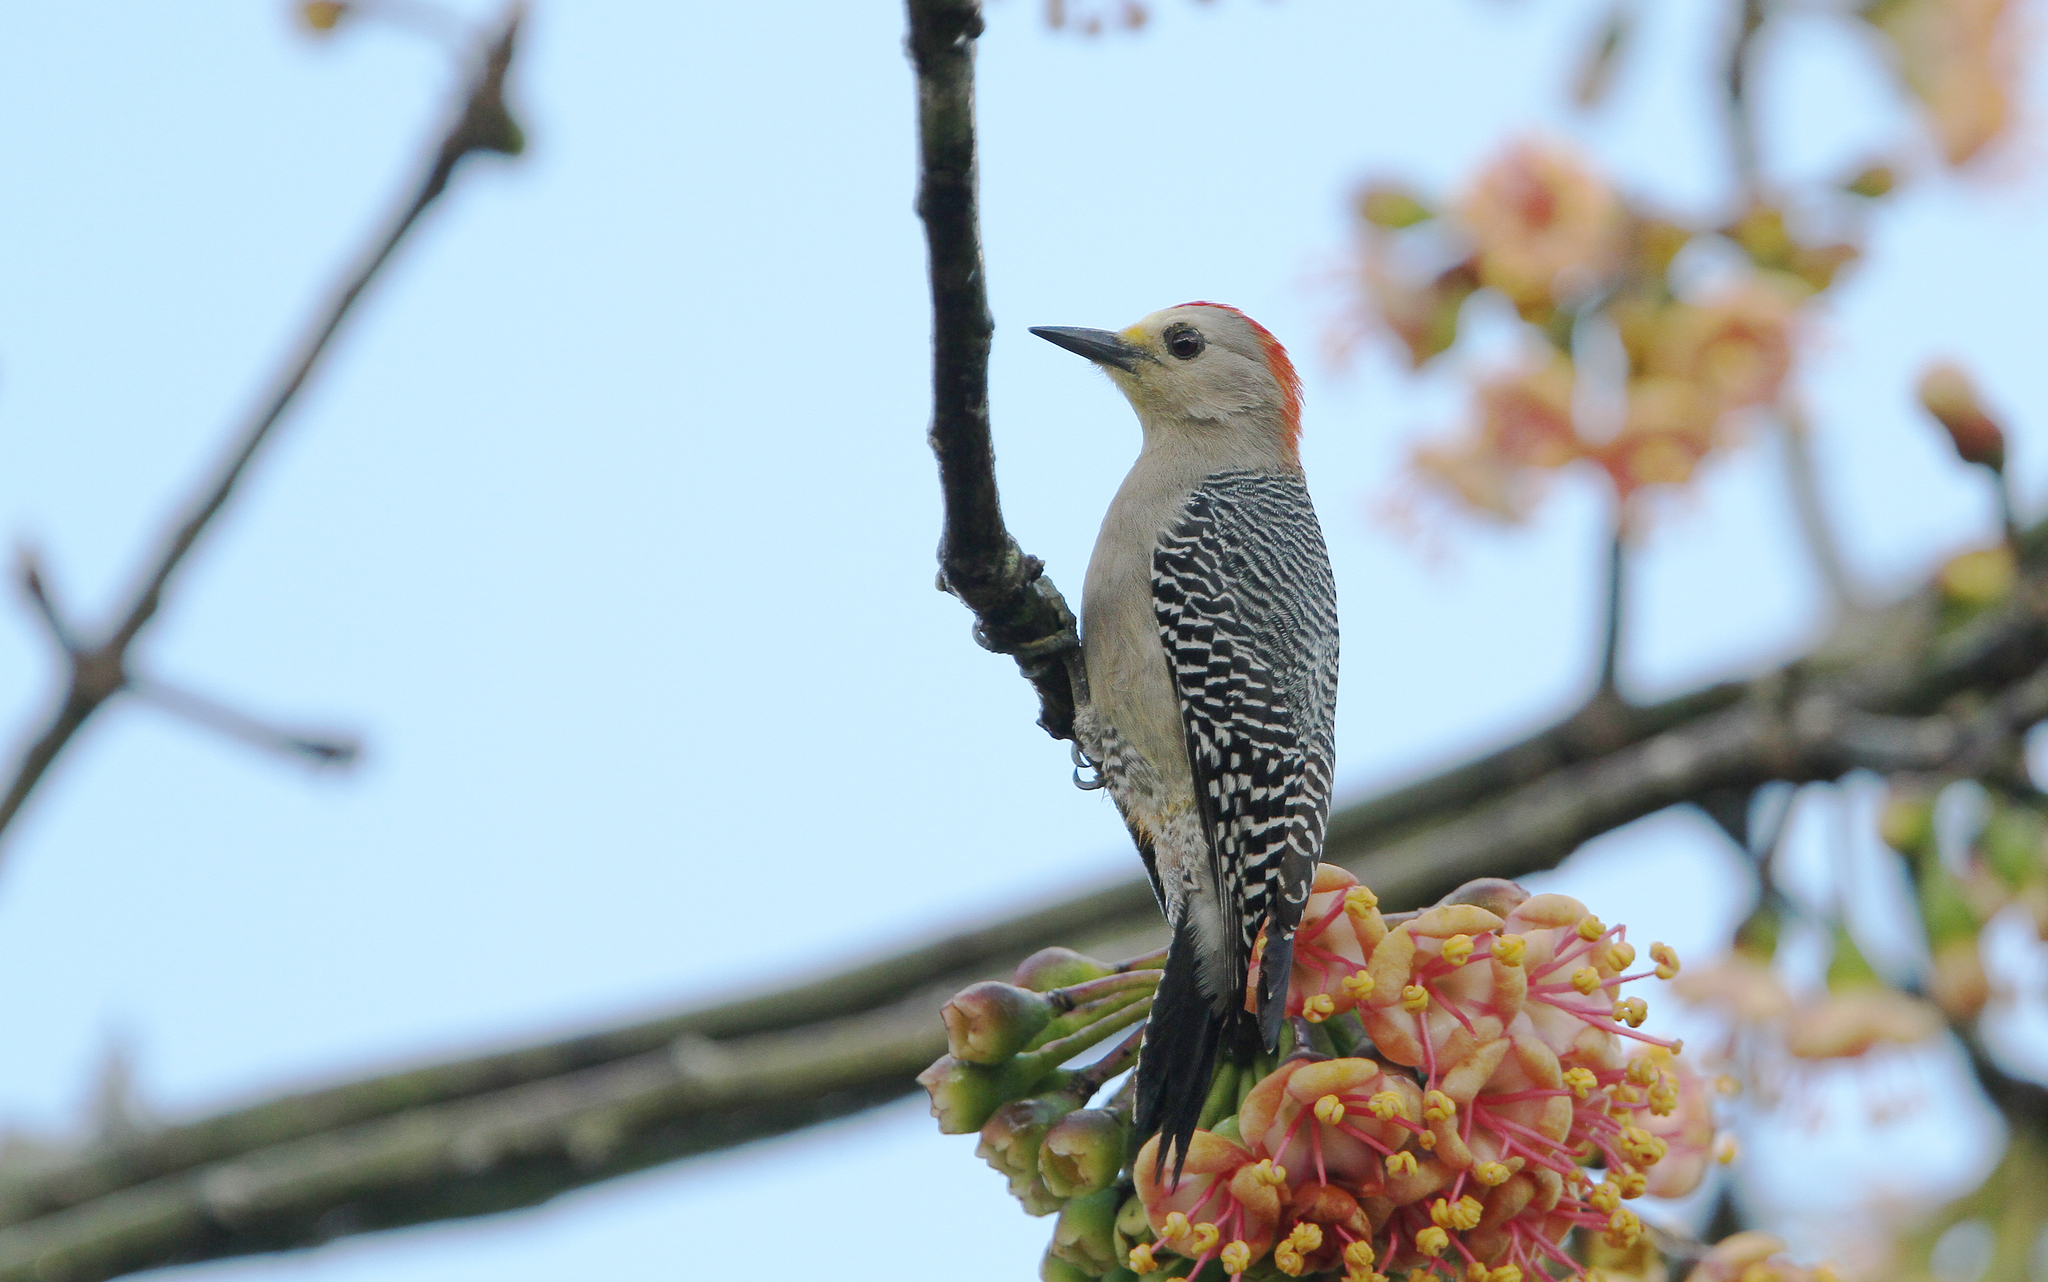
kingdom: Animalia
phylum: Chordata
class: Aves
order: Piciformes
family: Picidae
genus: Melanerpes
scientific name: Melanerpes pygmaeus
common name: Yucatan woodpecker
